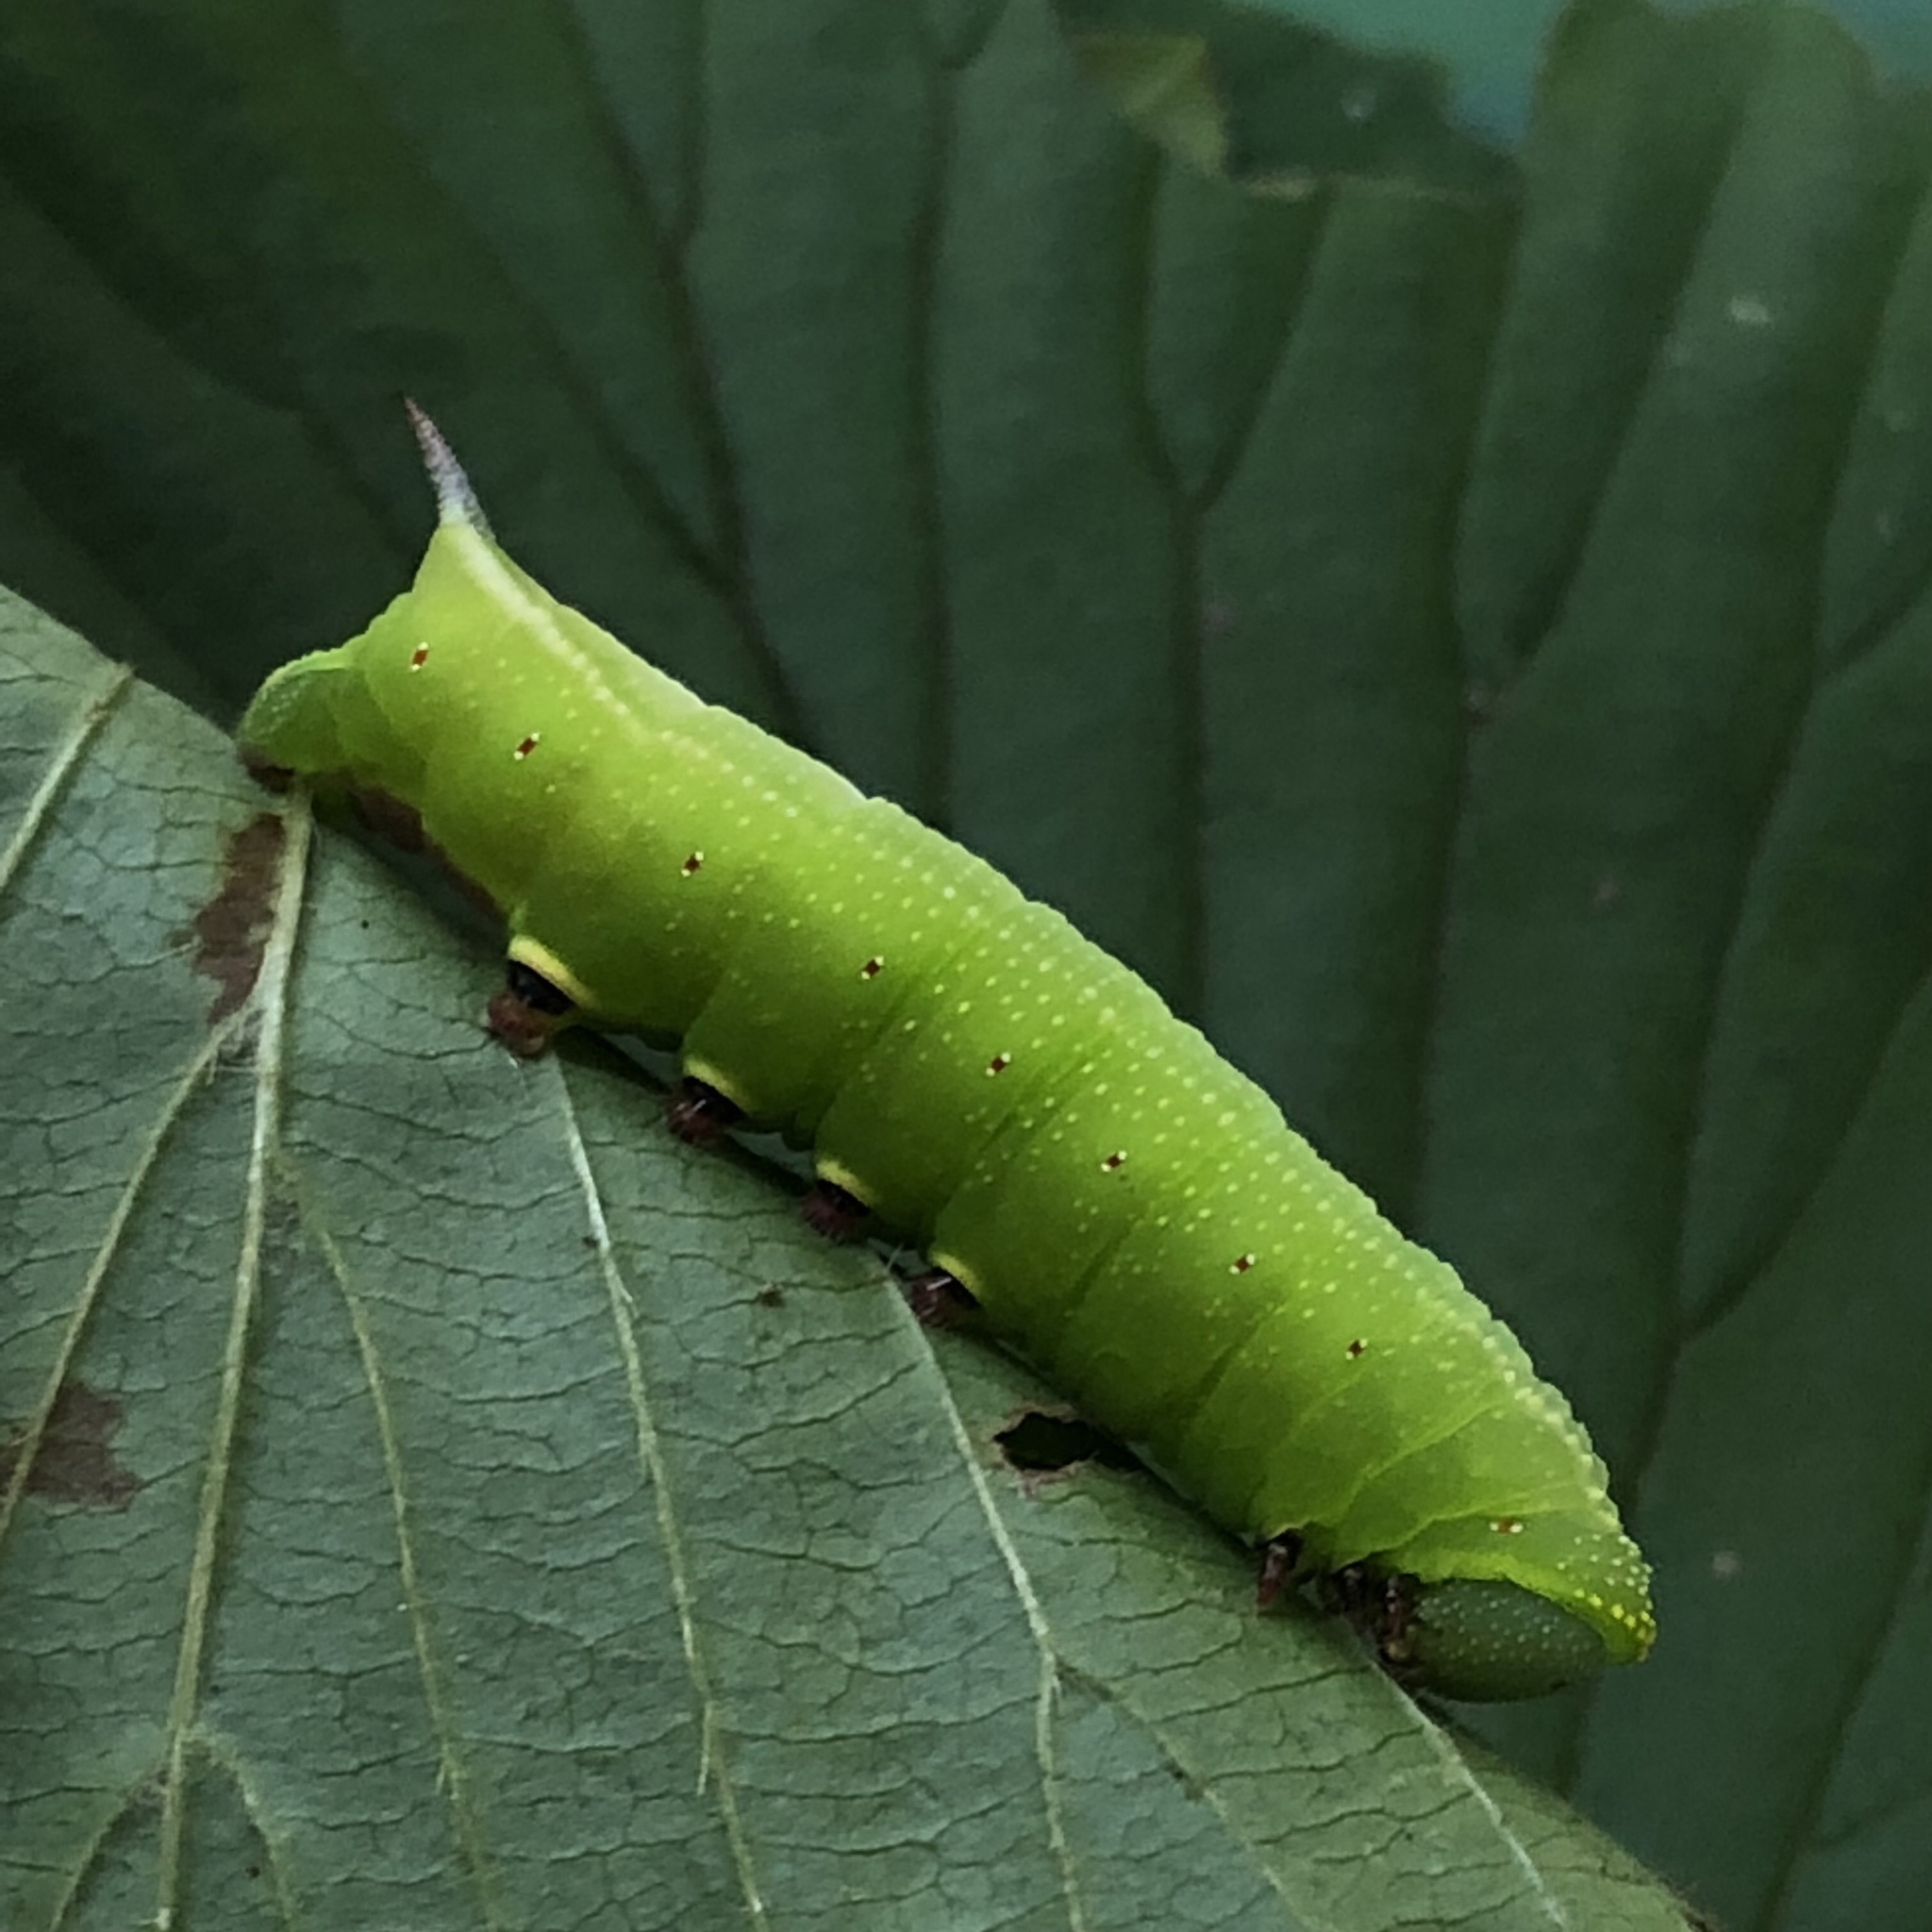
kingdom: Animalia
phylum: Arthropoda
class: Insecta
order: Lepidoptera
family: Sphingidae
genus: Hemaris
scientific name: Hemaris thysbe
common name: Common clear-wing
